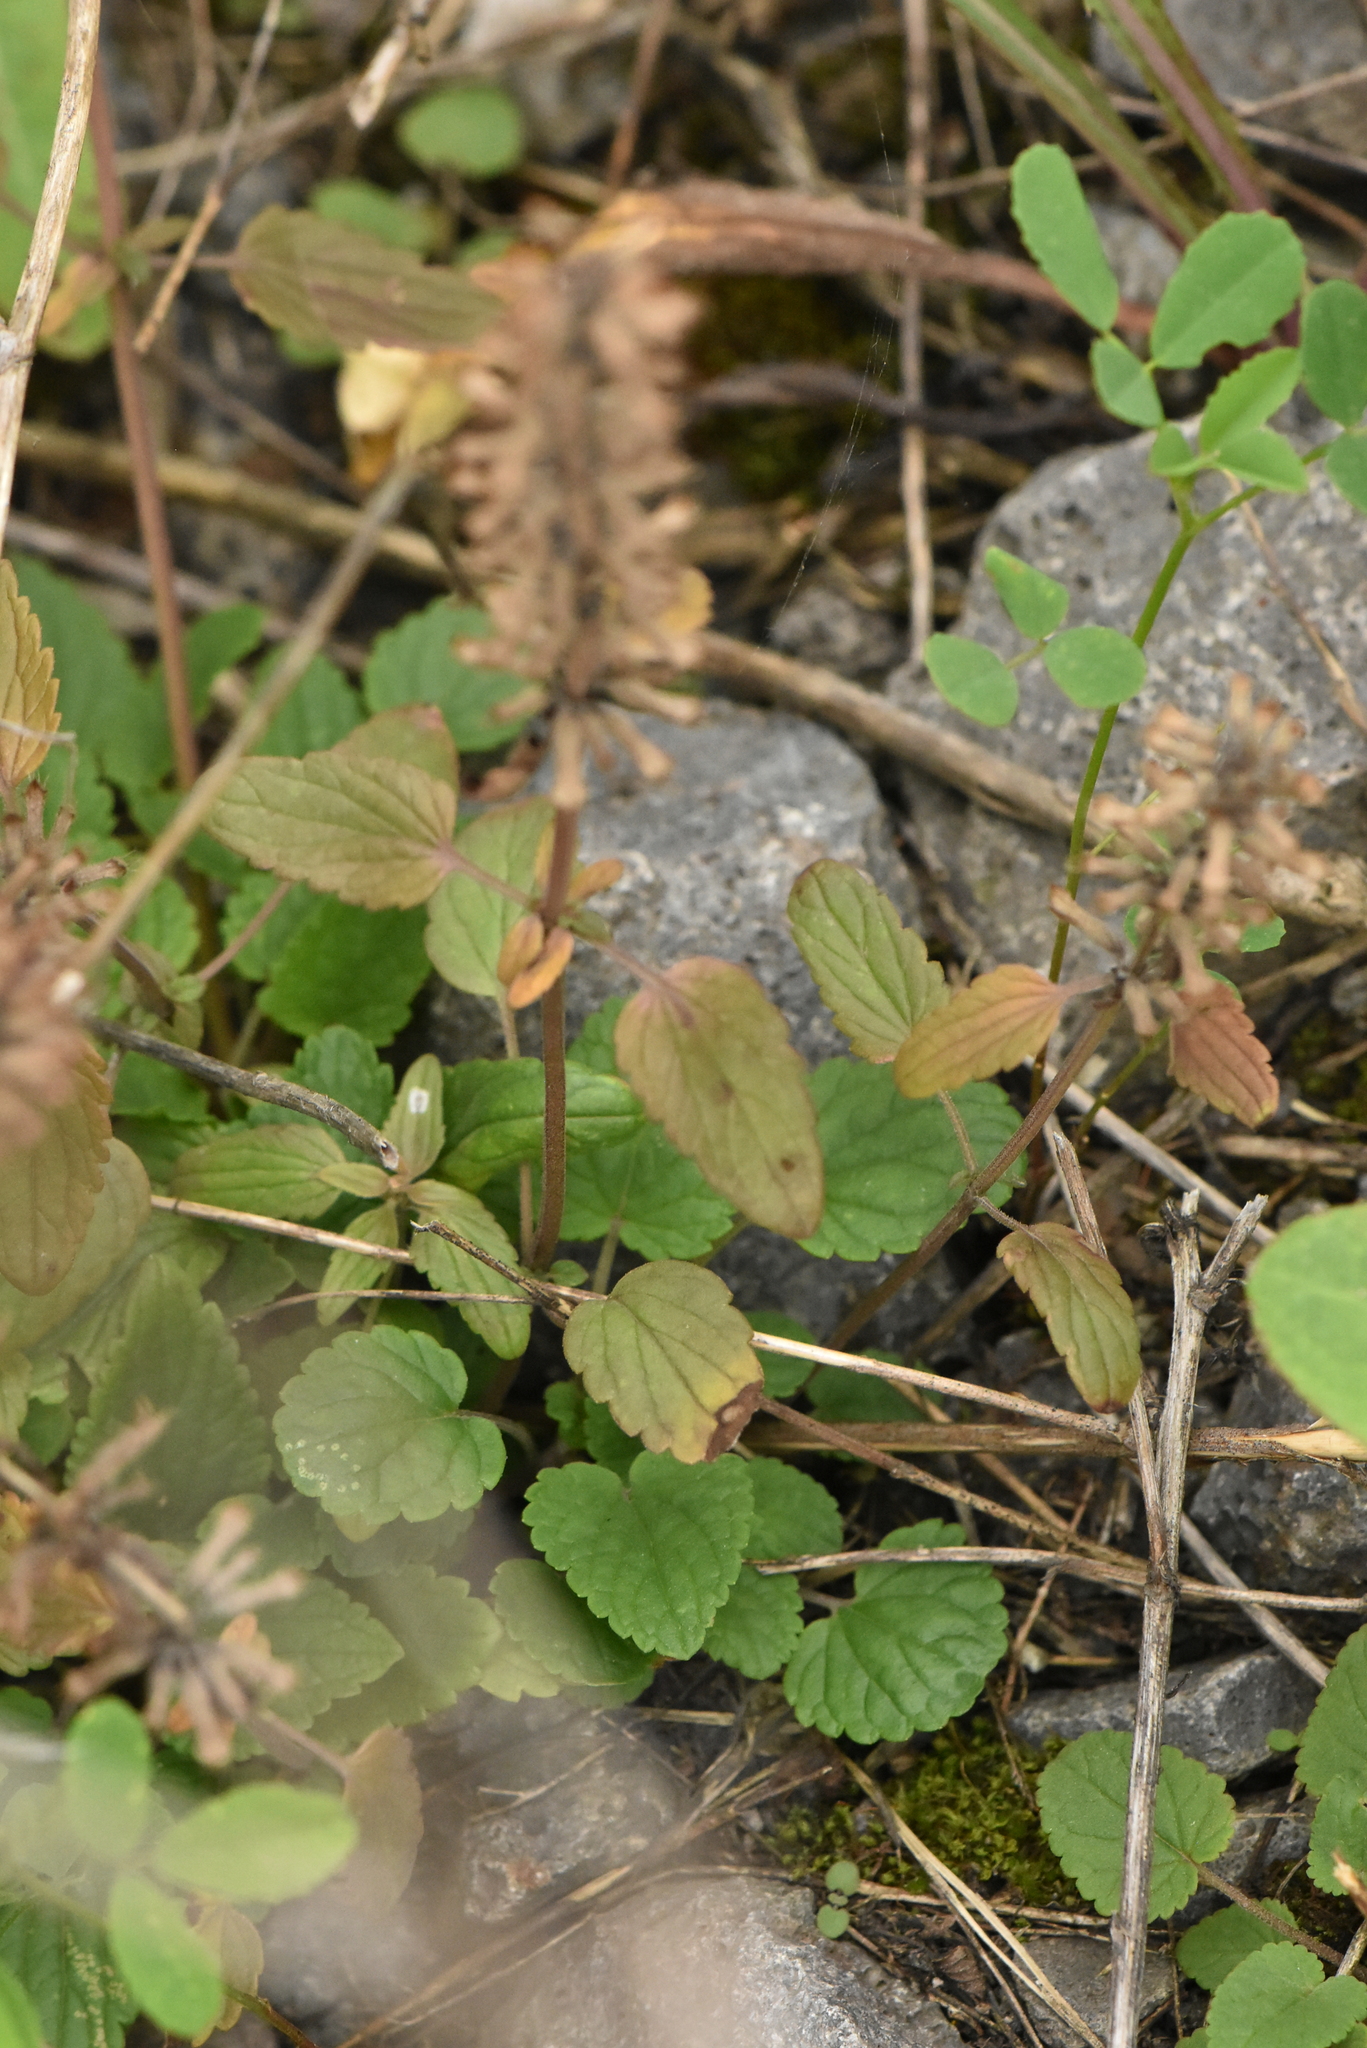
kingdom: Plantae
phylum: Tracheophyta
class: Magnoliopsida
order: Lamiales
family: Lamiaceae
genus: Dracocephalum
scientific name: Dracocephalum nutans
